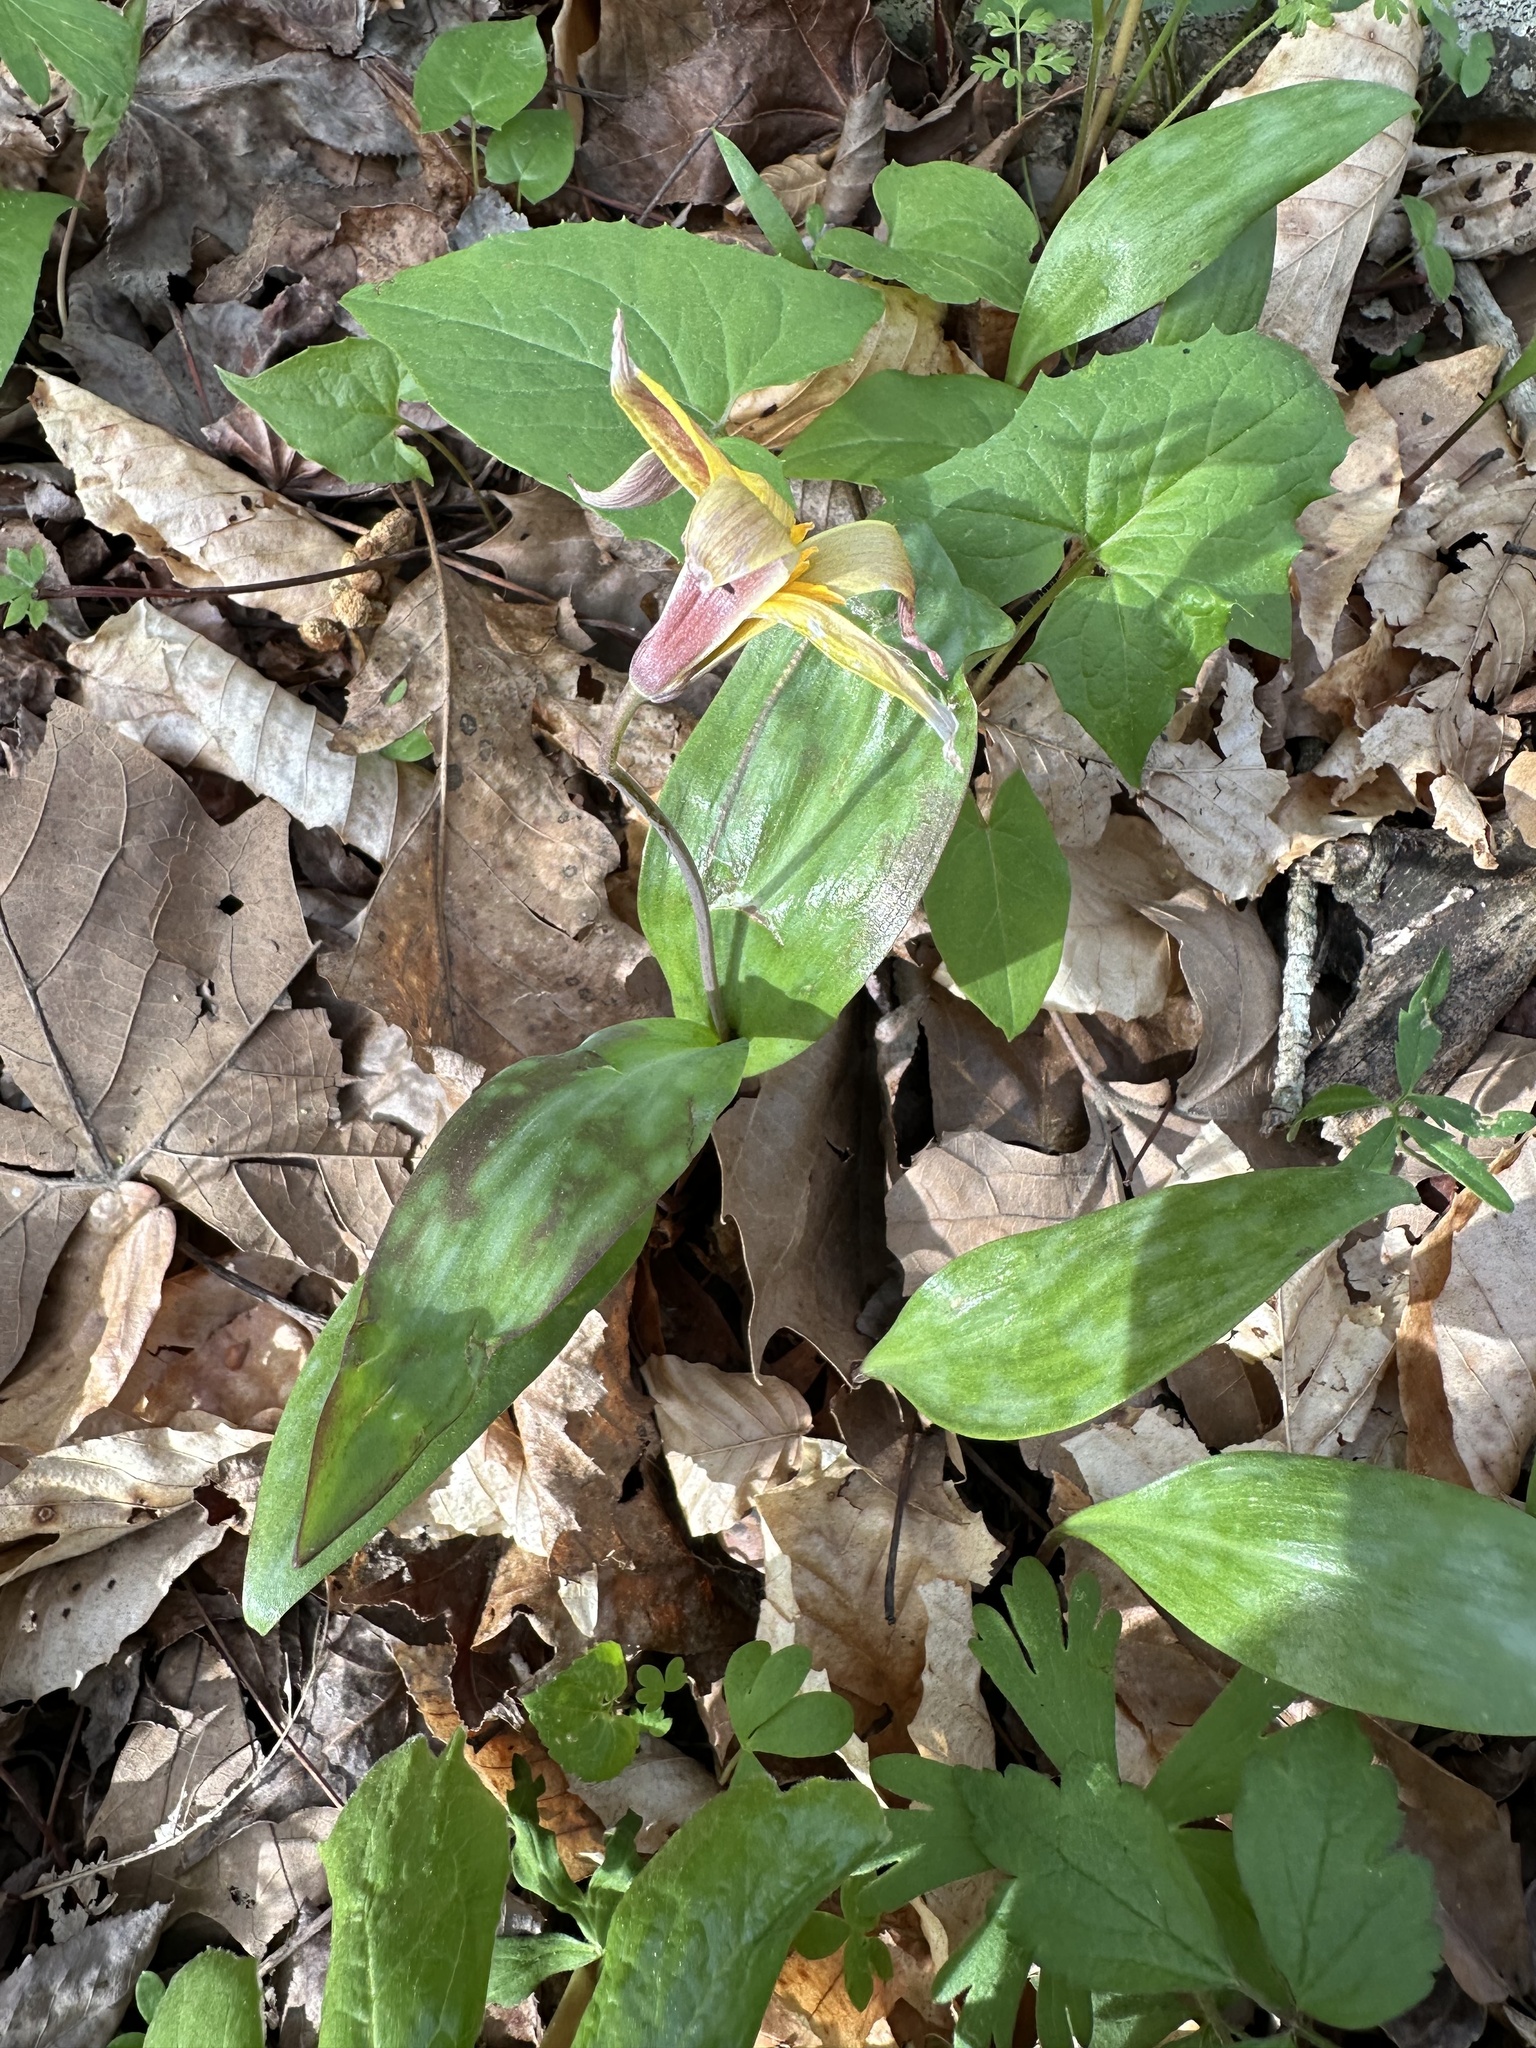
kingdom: Plantae
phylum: Tracheophyta
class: Liliopsida
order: Liliales
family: Liliaceae
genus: Erythronium
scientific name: Erythronium rostratum
